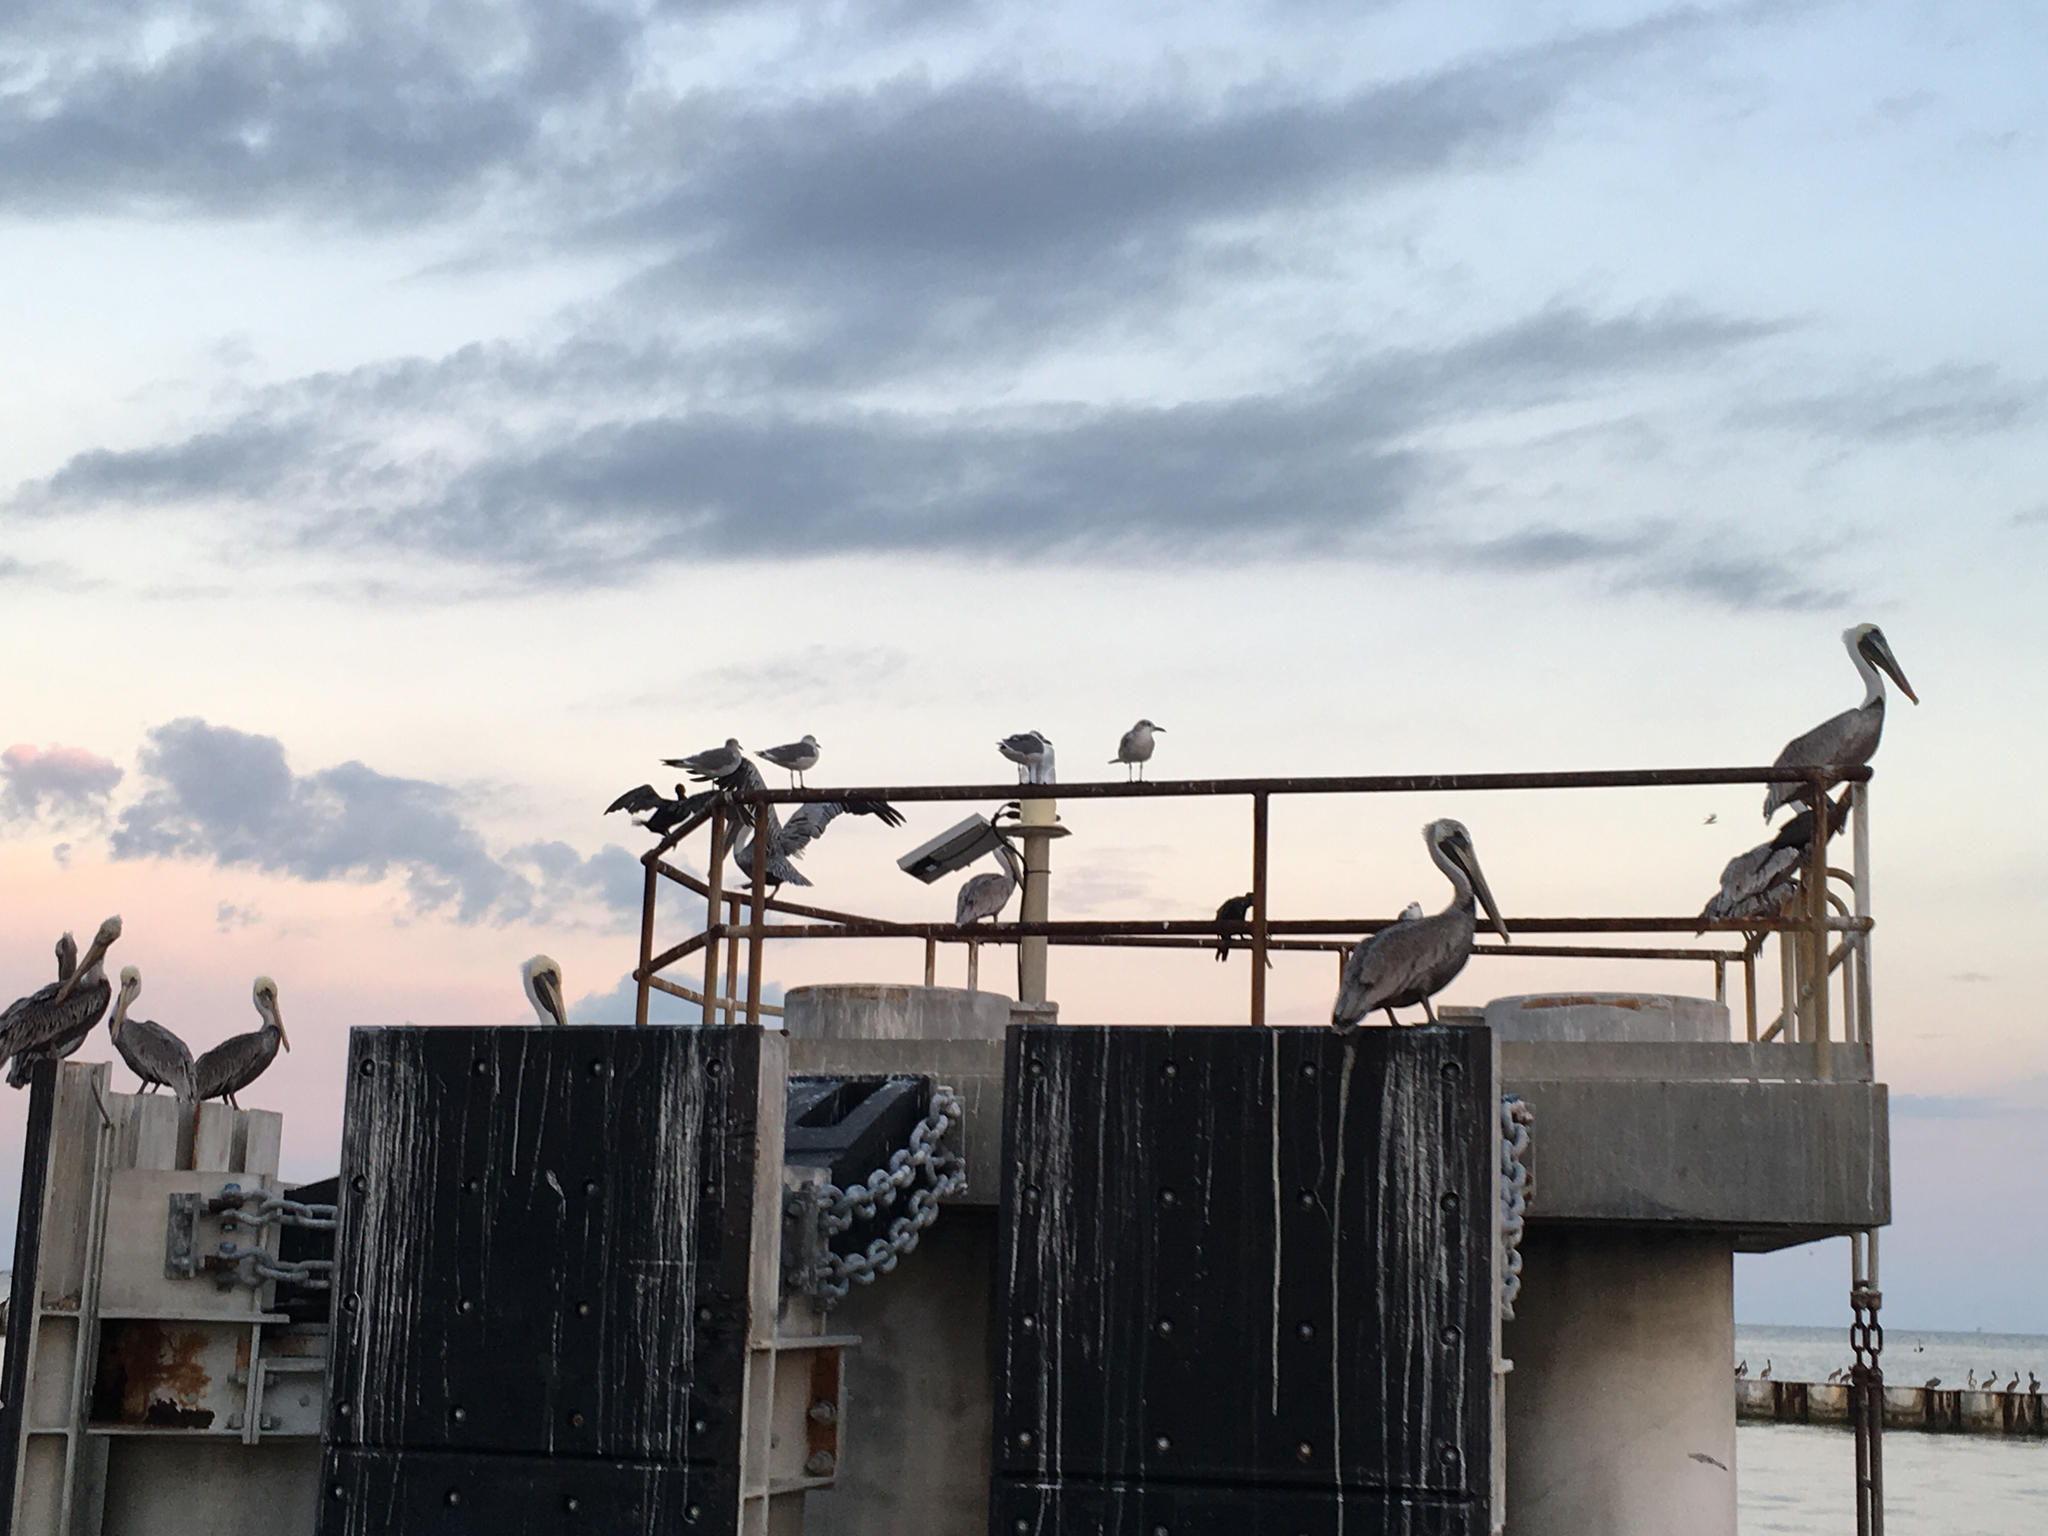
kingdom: Animalia
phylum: Chordata
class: Aves
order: Pelecaniformes
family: Pelecanidae
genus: Pelecanus
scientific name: Pelecanus occidentalis
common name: Brown pelican
